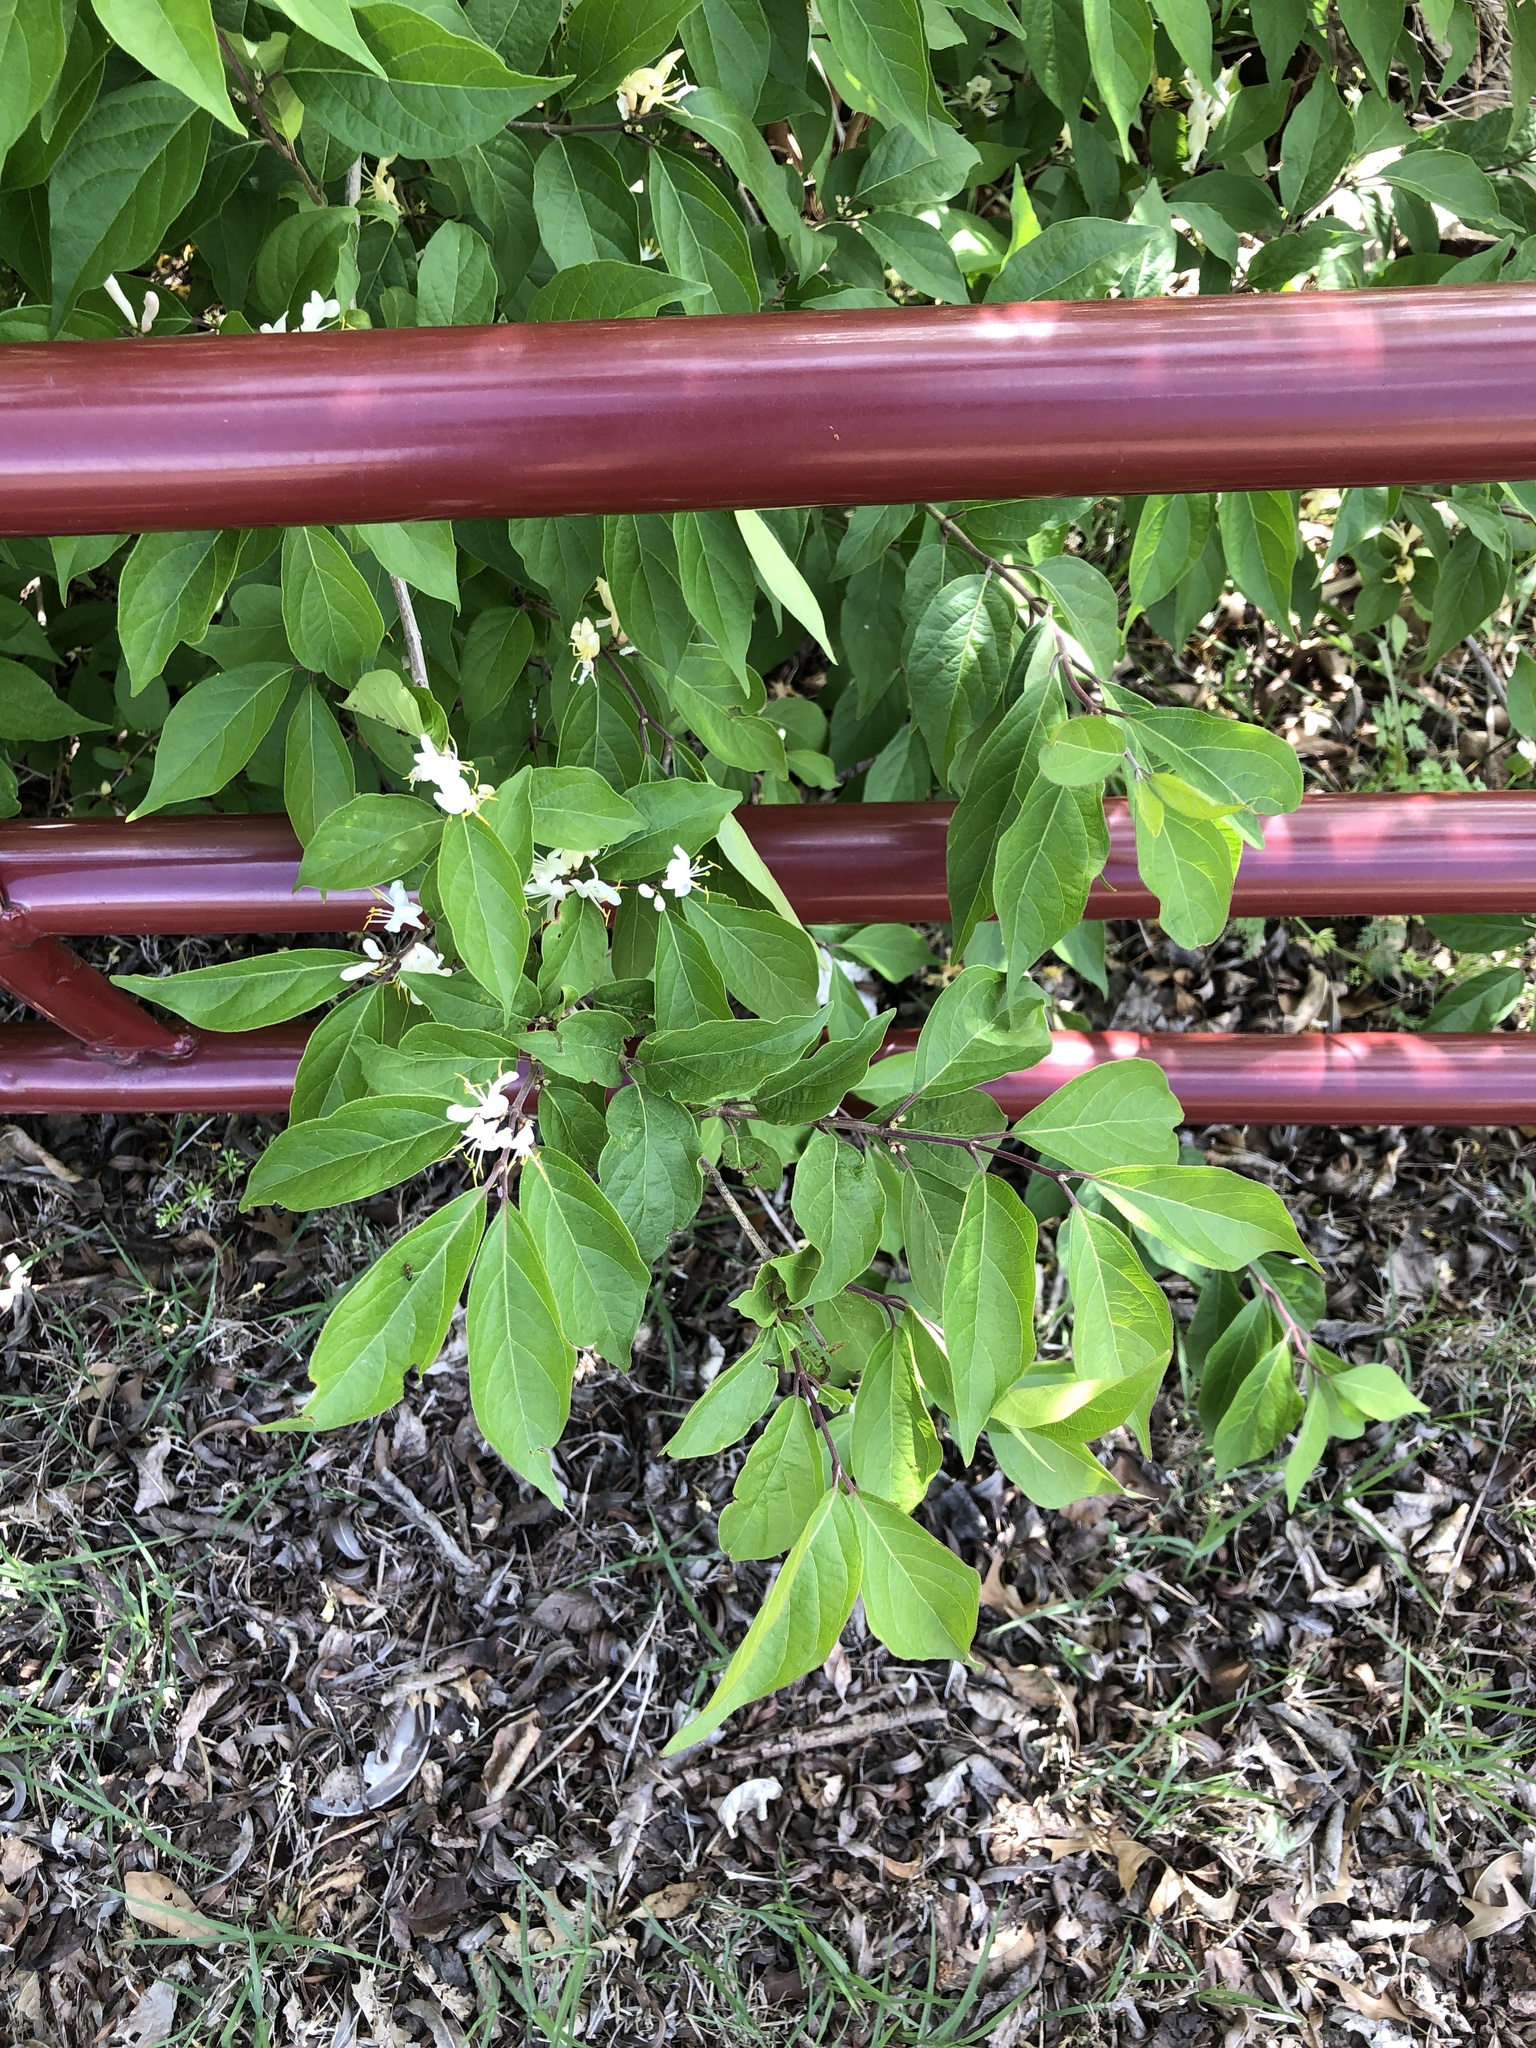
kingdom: Plantae
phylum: Tracheophyta
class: Magnoliopsida
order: Dipsacales
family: Caprifoliaceae
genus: Lonicera
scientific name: Lonicera maackii
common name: Amur honeysuckle
